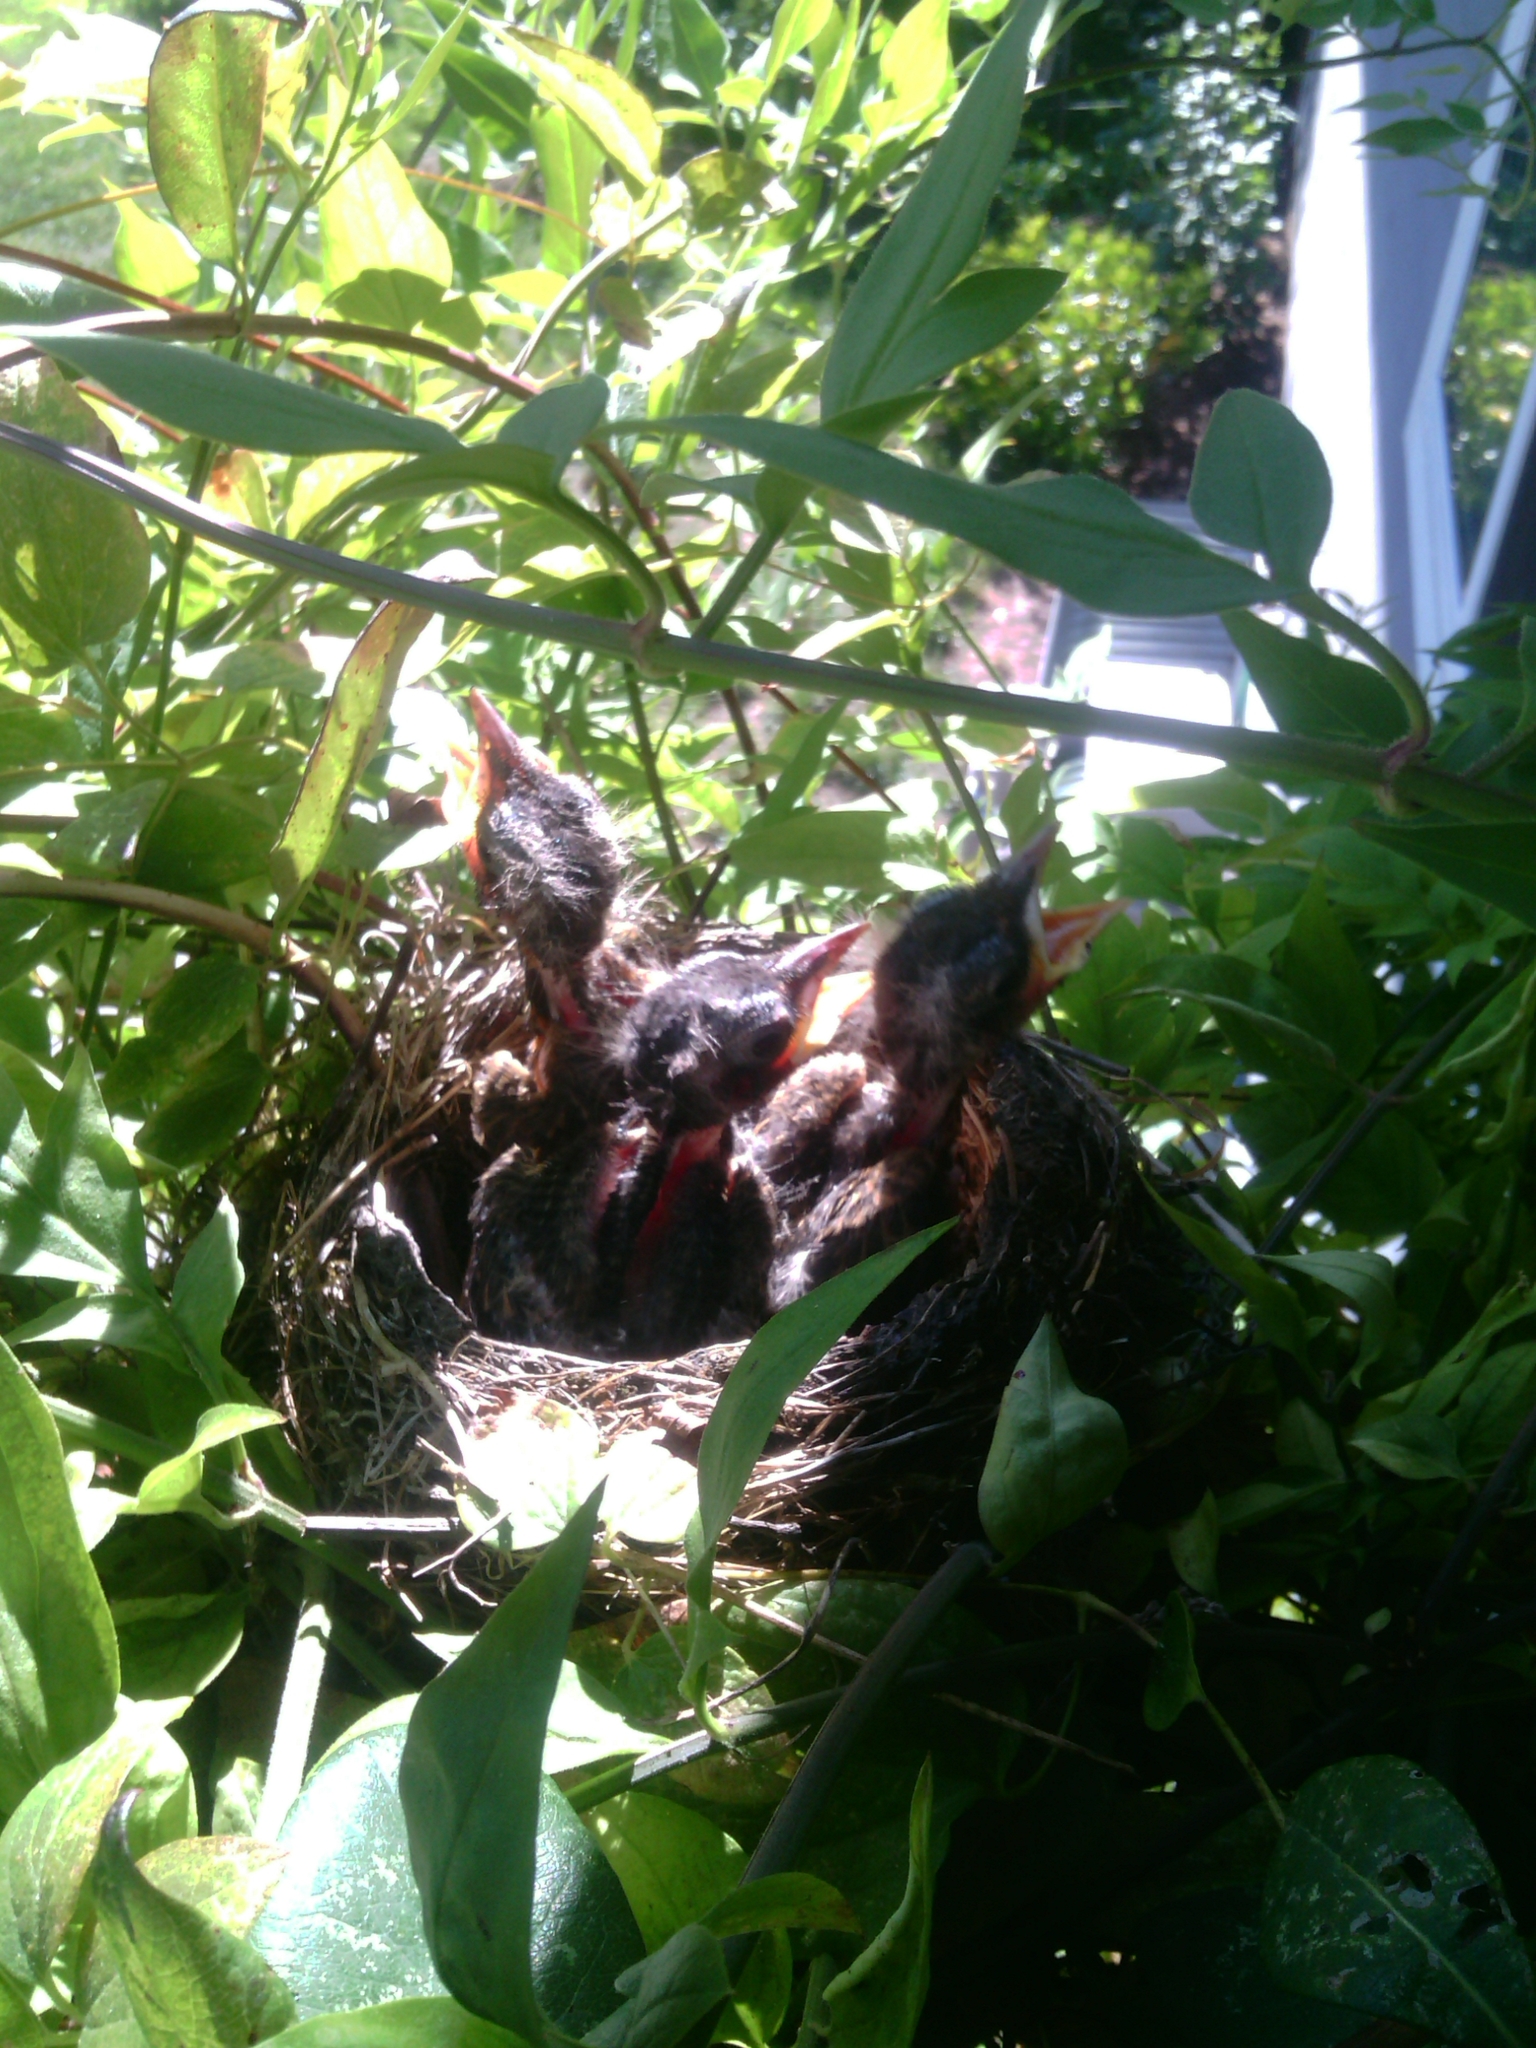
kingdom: Animalia
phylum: Chordata
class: Aves
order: Passeriformes
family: Turdidae
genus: Turdus
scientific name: Turdus migratorius
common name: American robin
